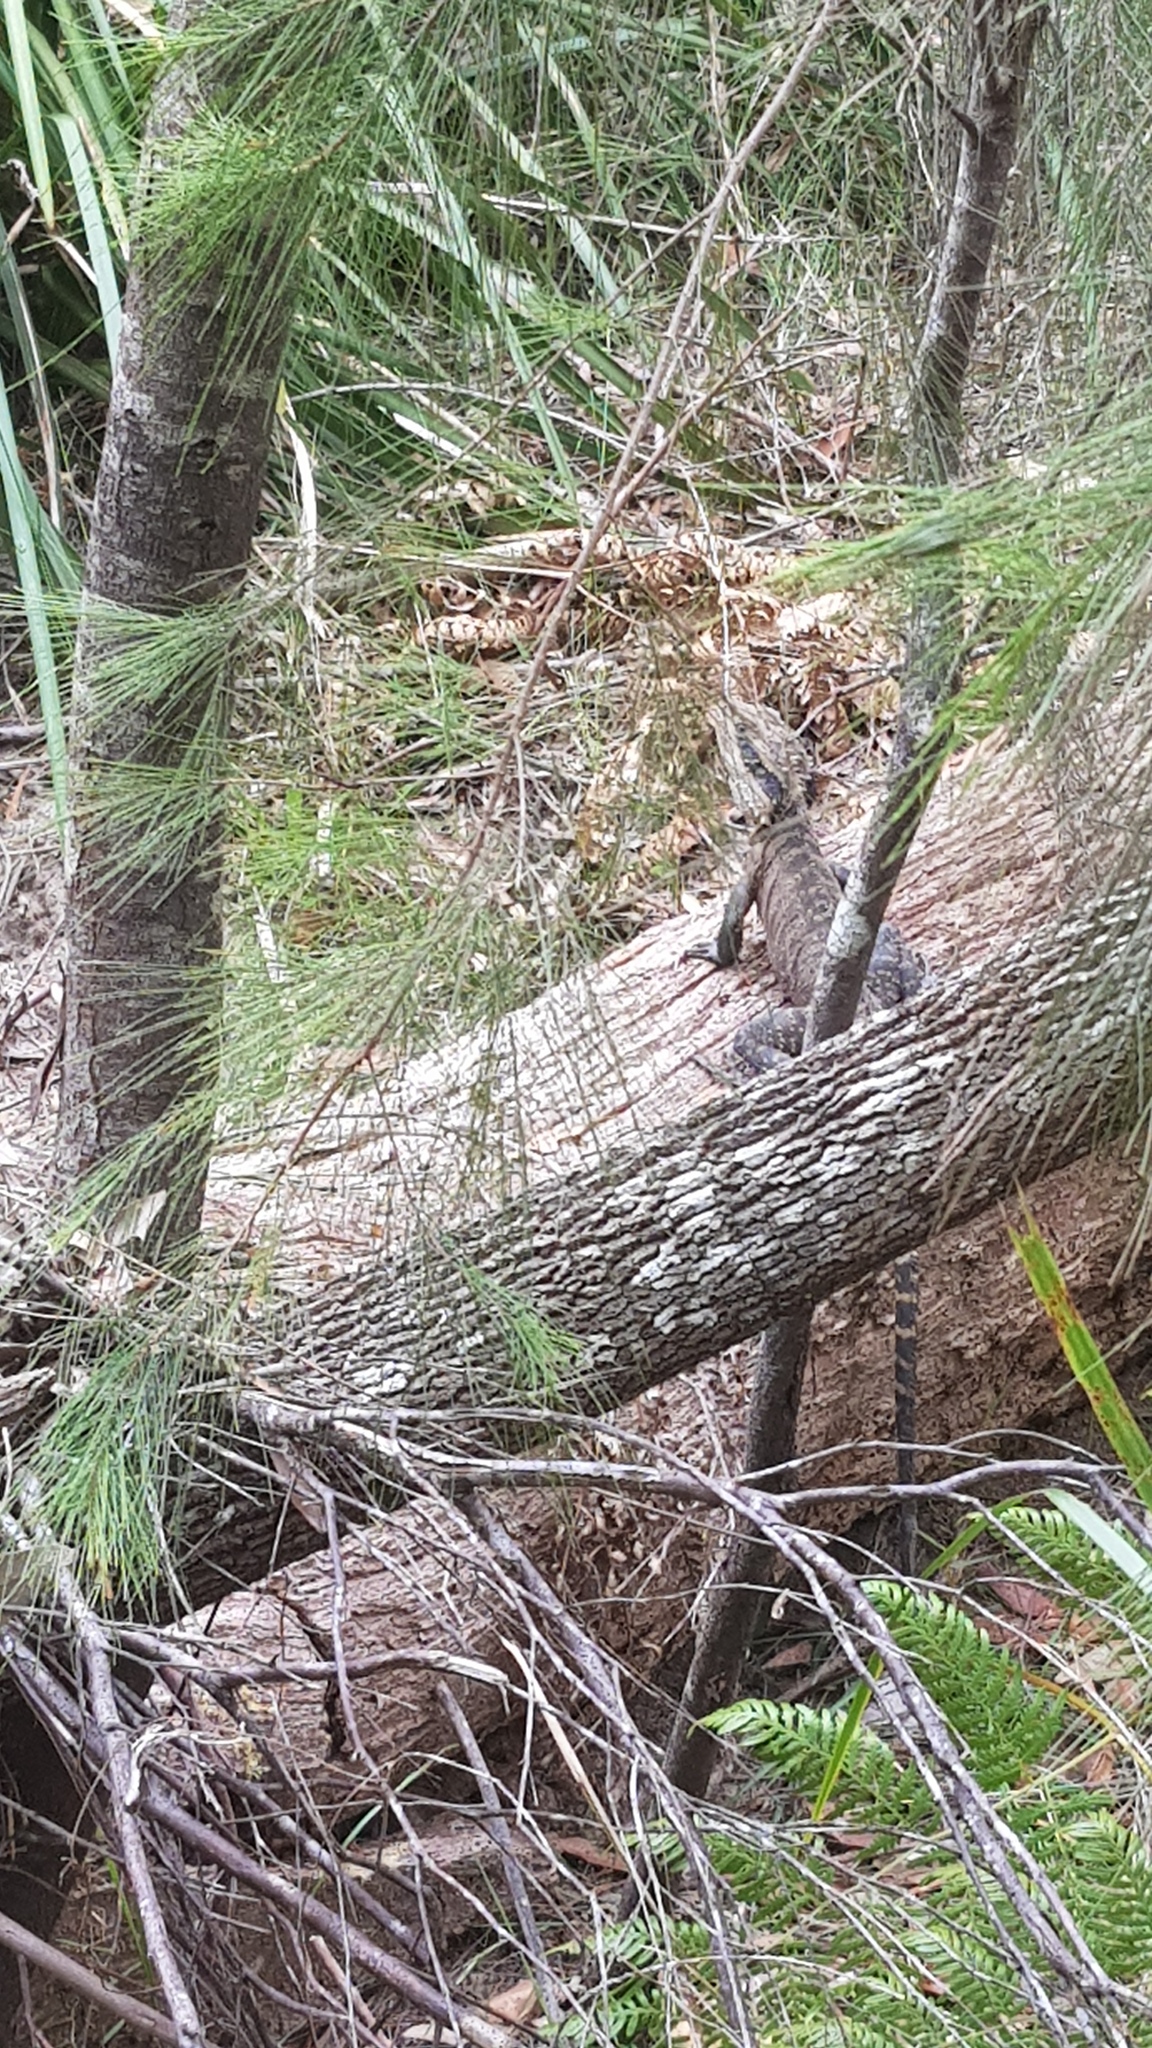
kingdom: Animalia
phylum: Chordata
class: Squamata
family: Agamidae
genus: Intellagama
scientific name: Intellagama lesueurii
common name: Eastern water dragon
